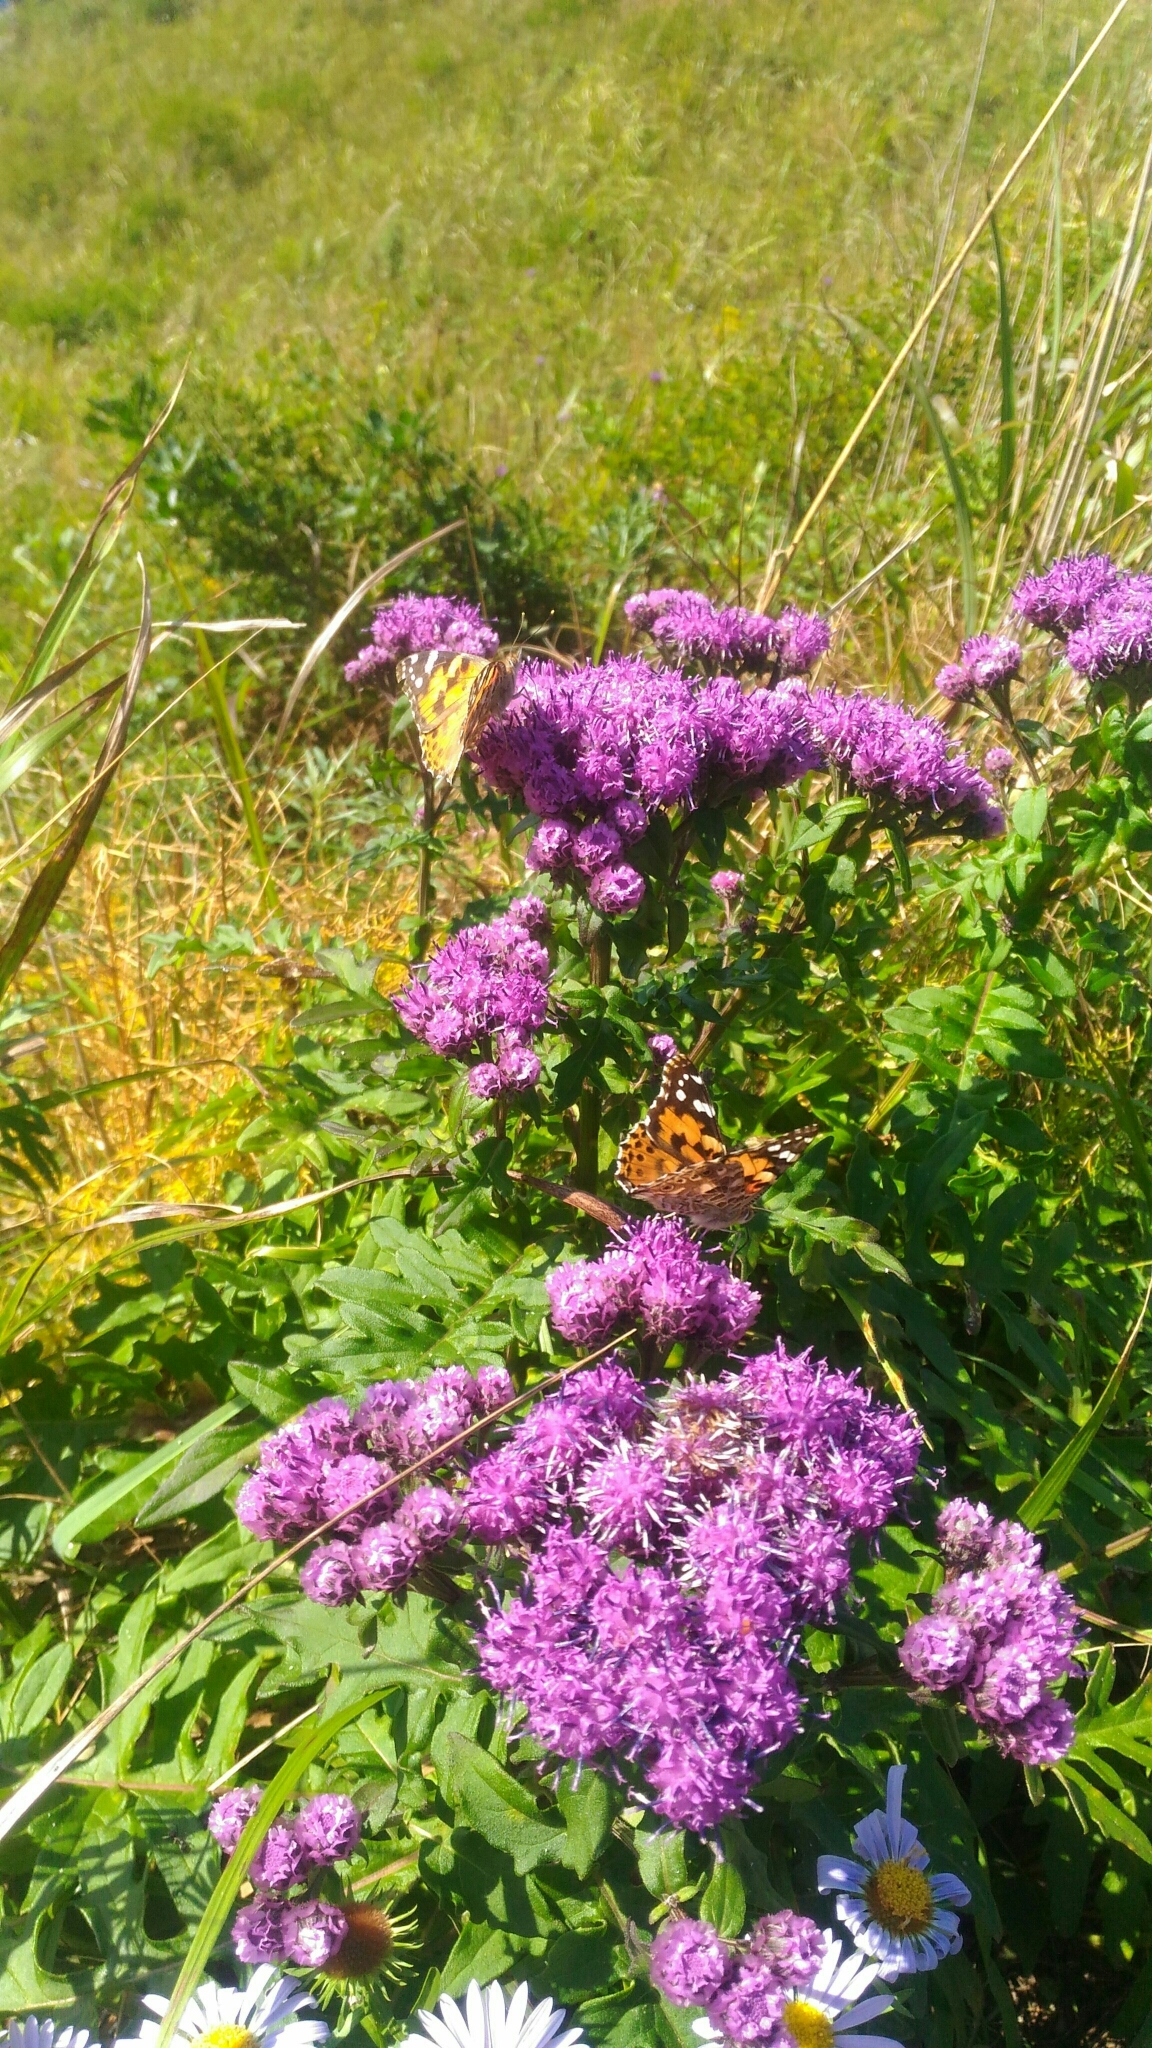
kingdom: Animalia
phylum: Arthropoda
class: Insecta
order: Lepidoptera
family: Nymphalidae
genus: Vanessa
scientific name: Vanessa cardui
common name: Painted lady
